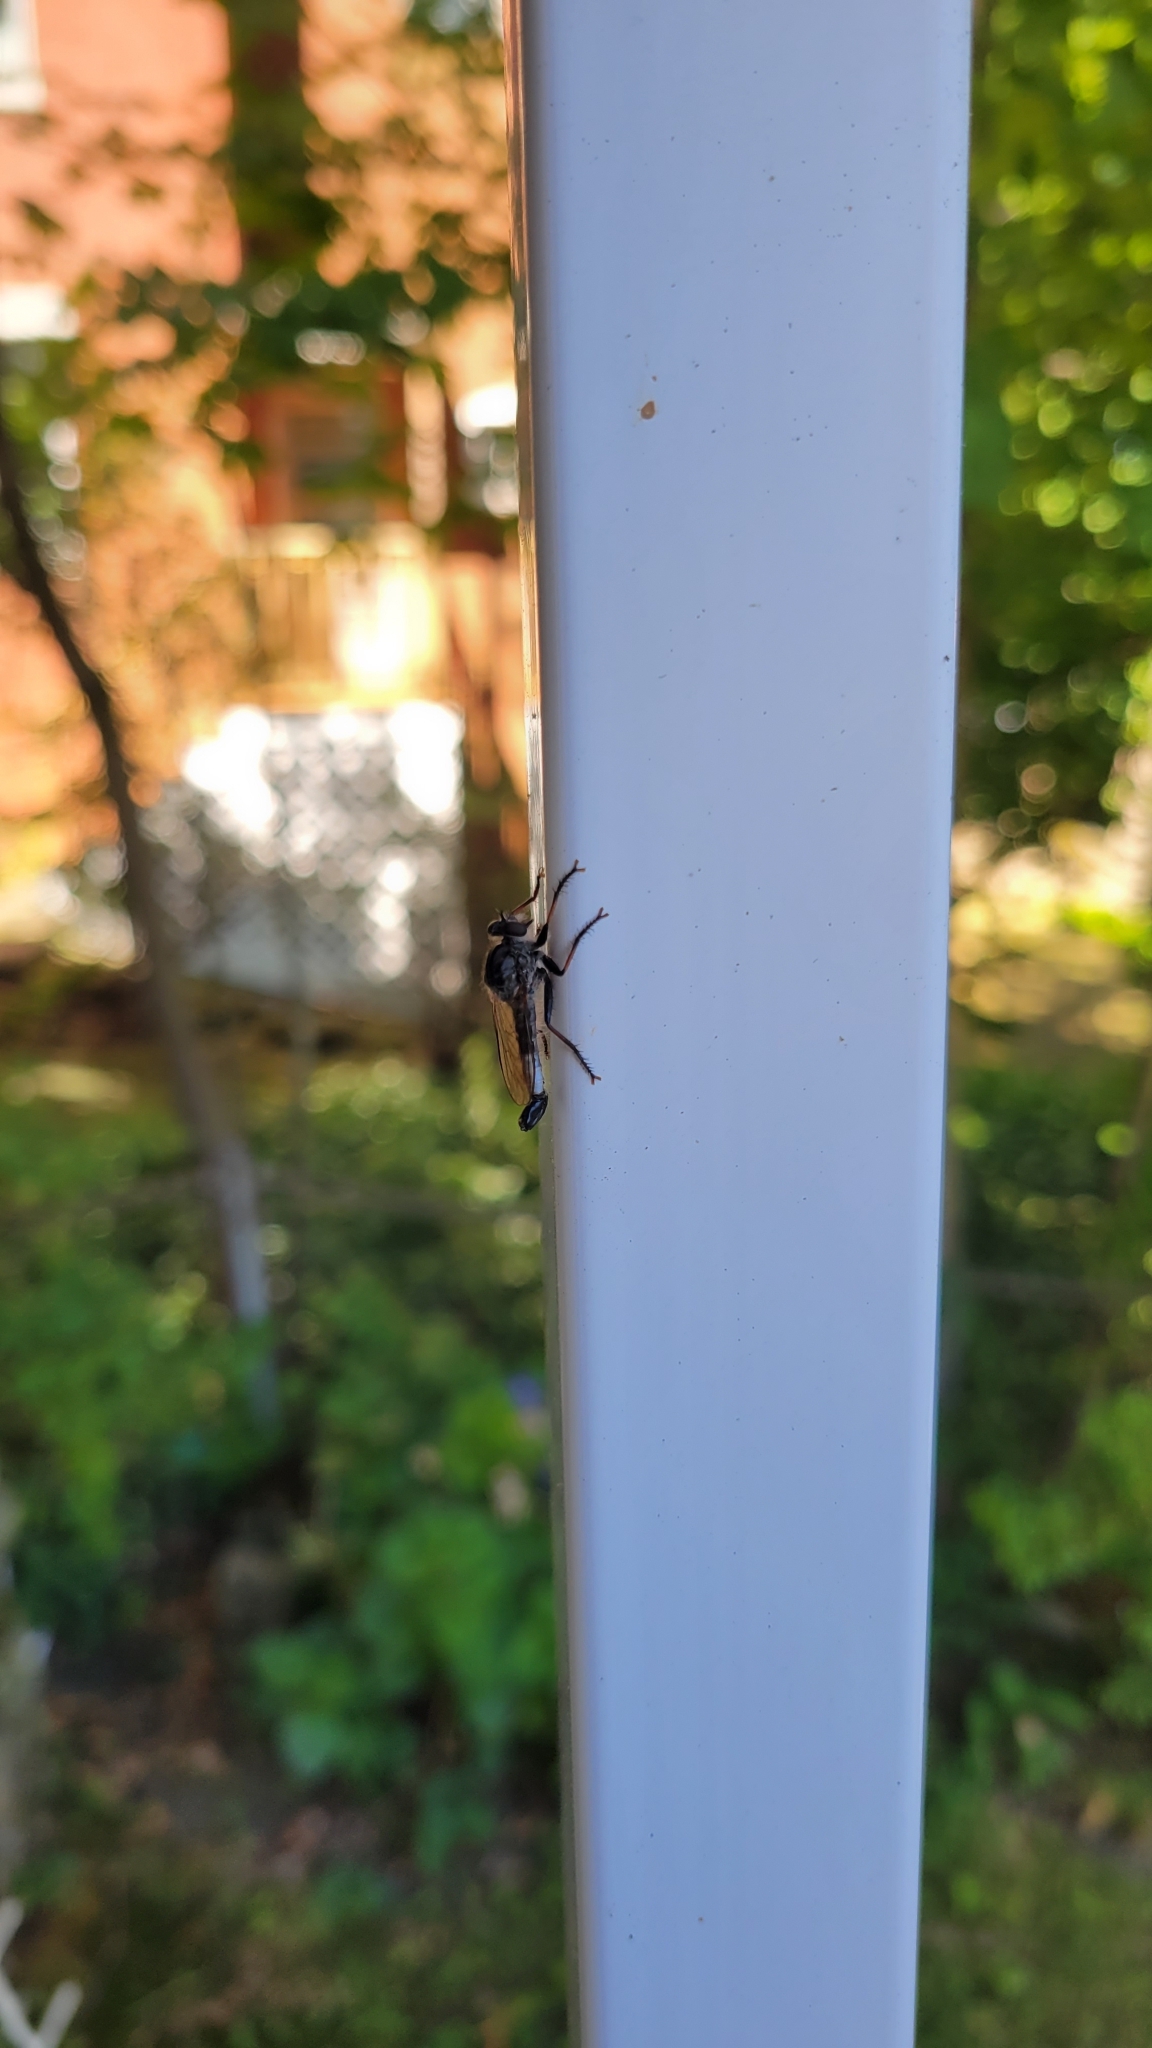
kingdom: Animalia
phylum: Arthropoda
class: Insecta
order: Diptera
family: Asilidae
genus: Efferia
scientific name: Efferia aestuans
